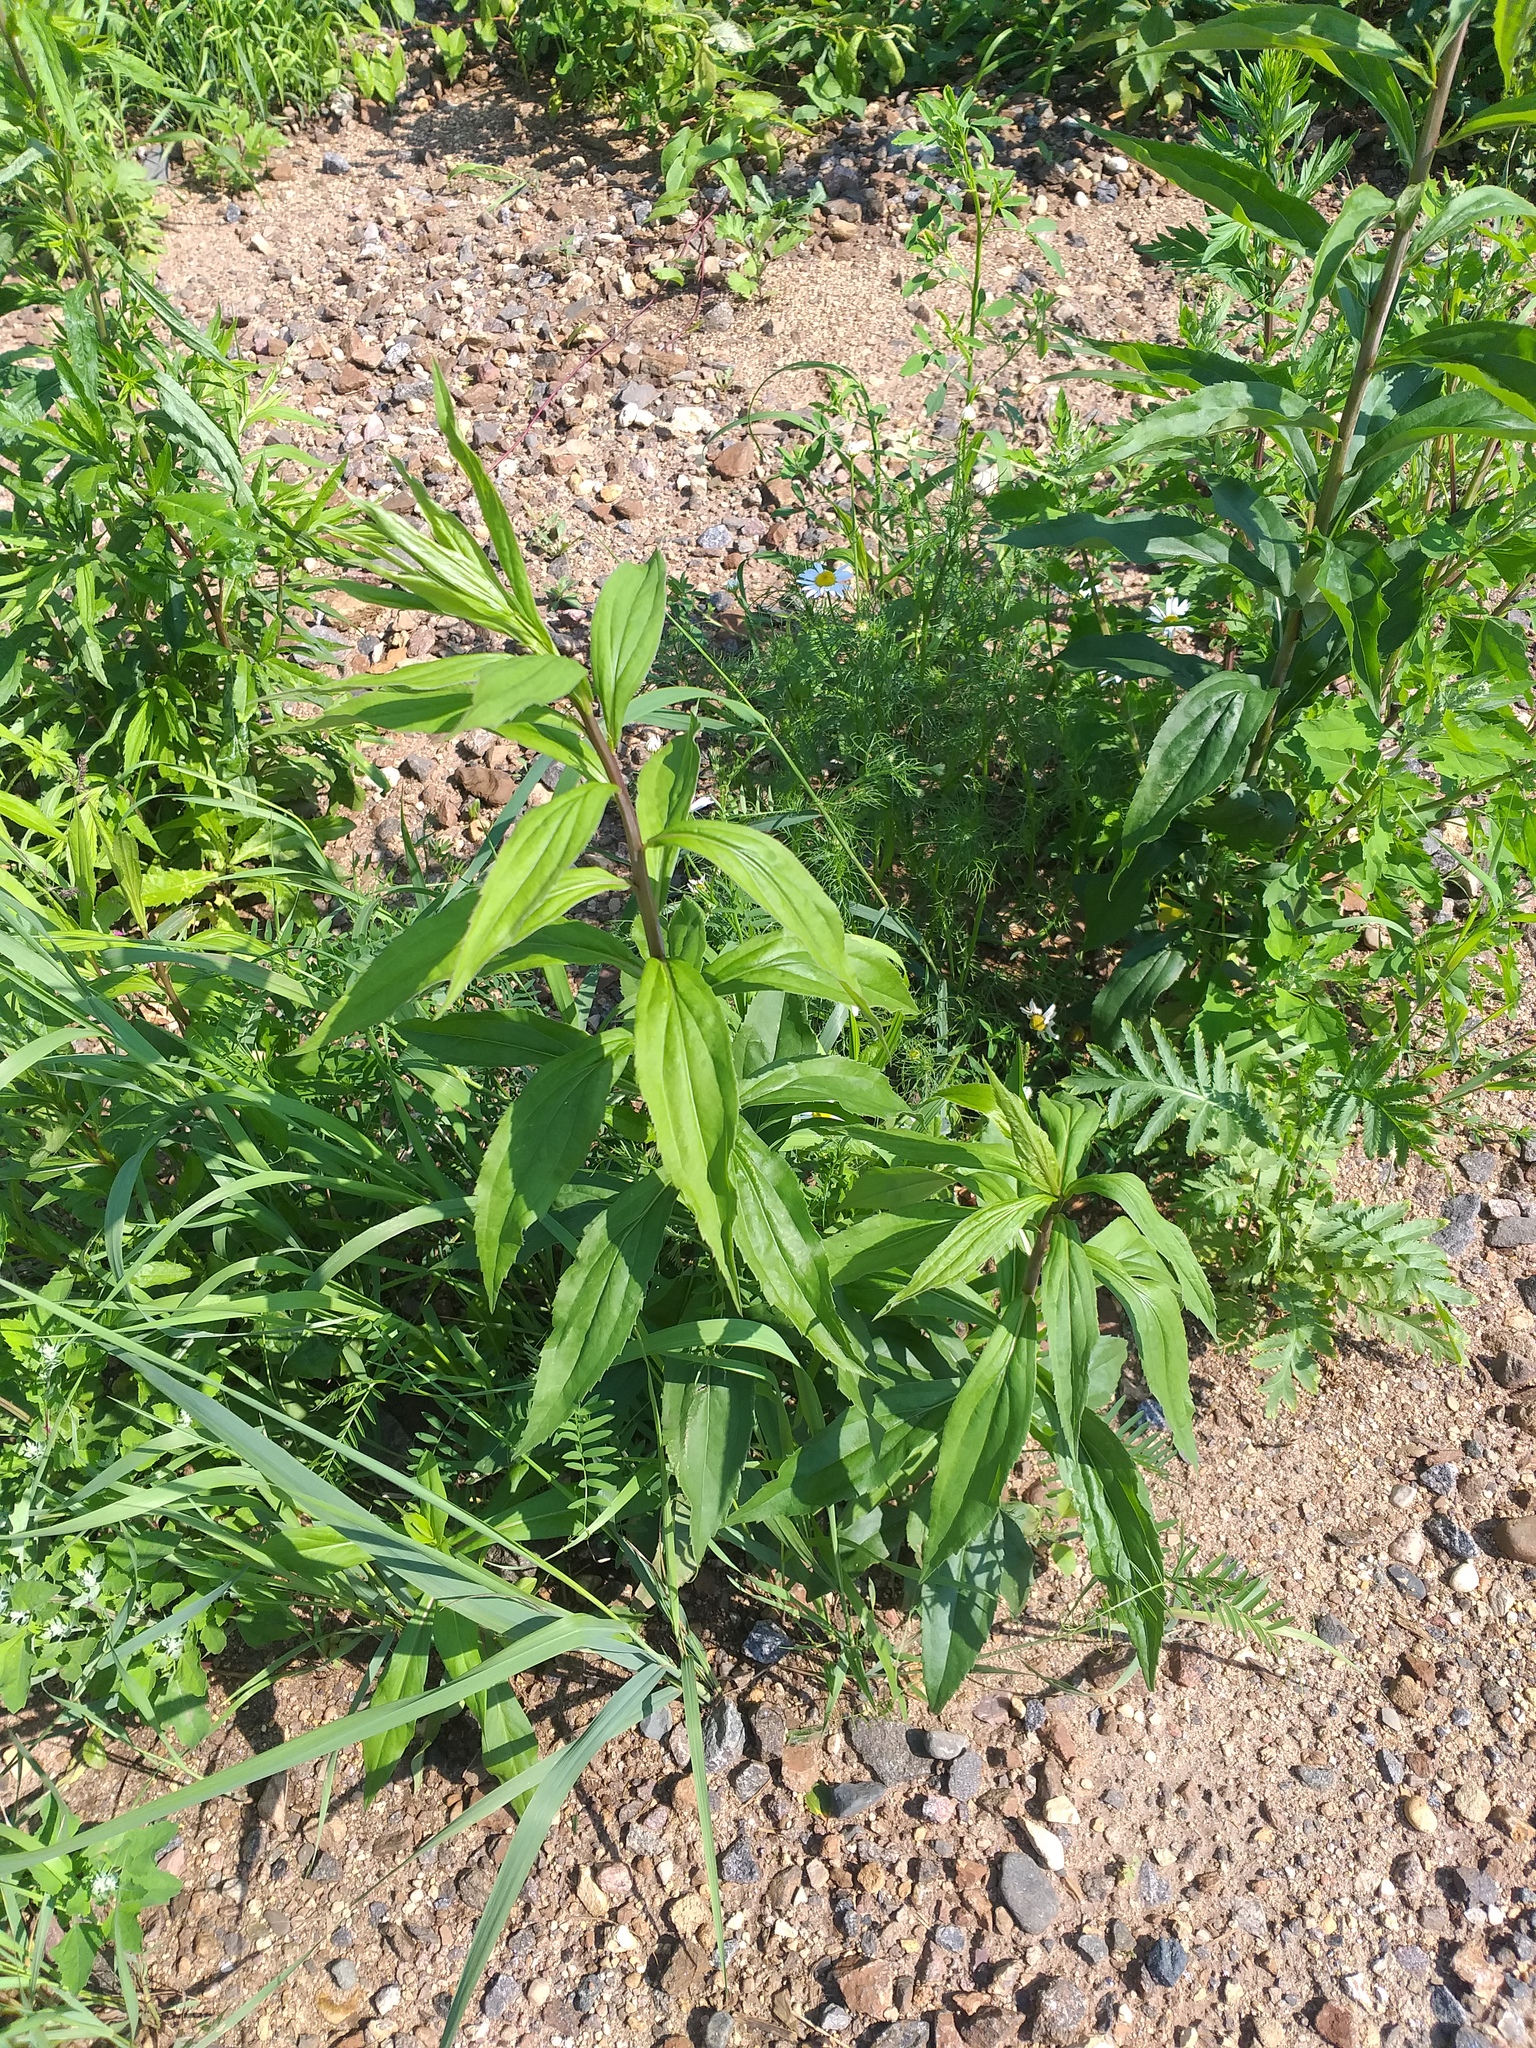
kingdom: Plantae
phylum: Tracheophyta
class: Magnoliopsida
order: Asterales
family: Asteraceae
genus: Solidago
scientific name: Solidago gigantea
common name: Giant goldenrod
